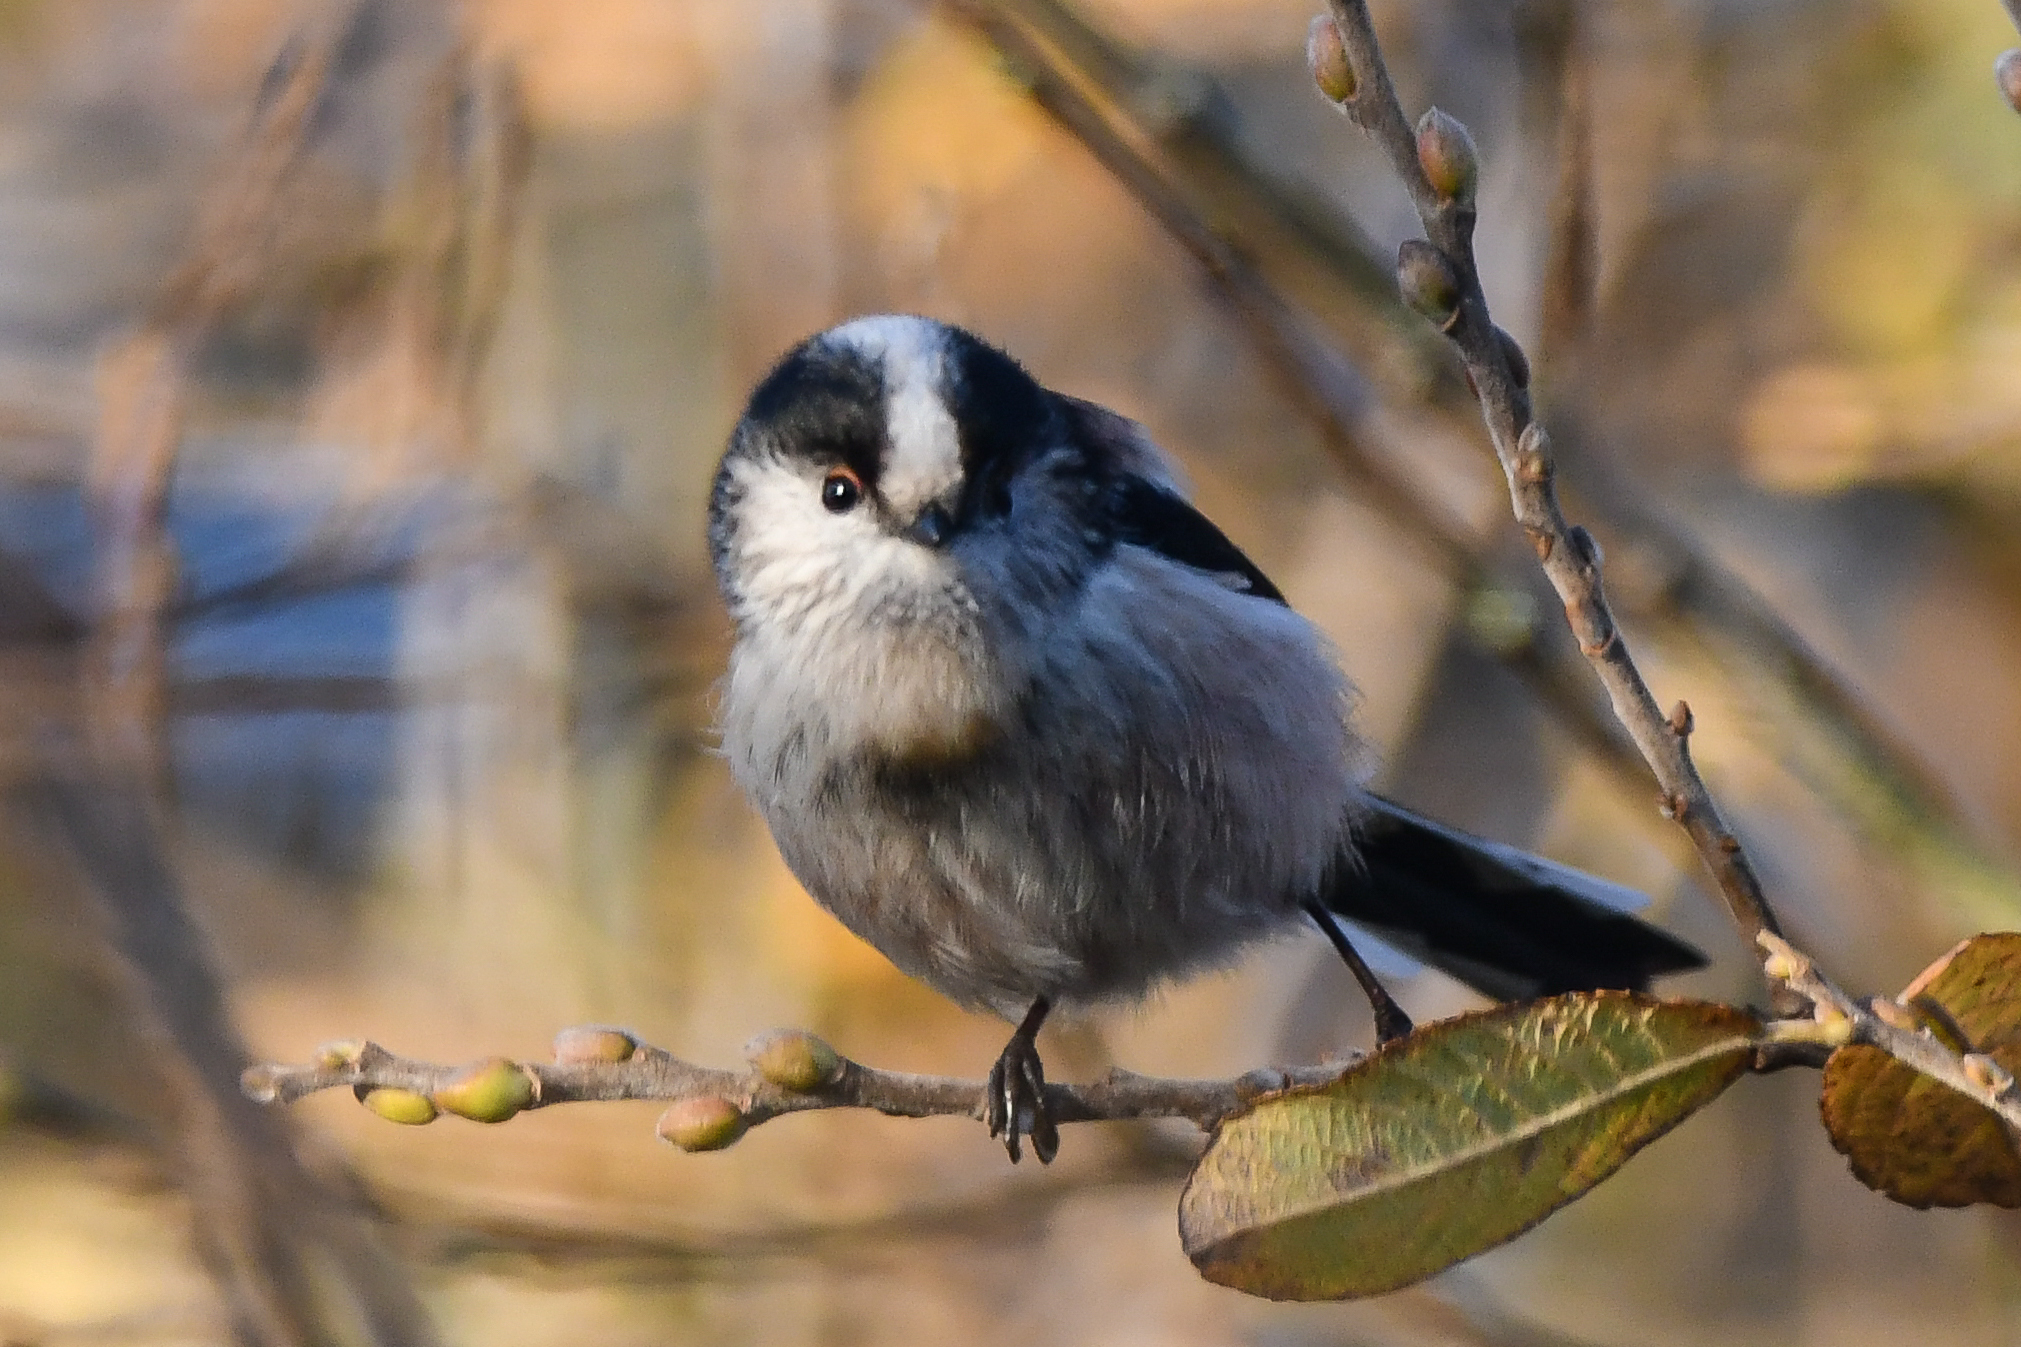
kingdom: Animalia
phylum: Chordata
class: Aves
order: Passeriformes
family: Aegithalidae
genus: Aegithalos
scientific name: Aegithalos caudatus
